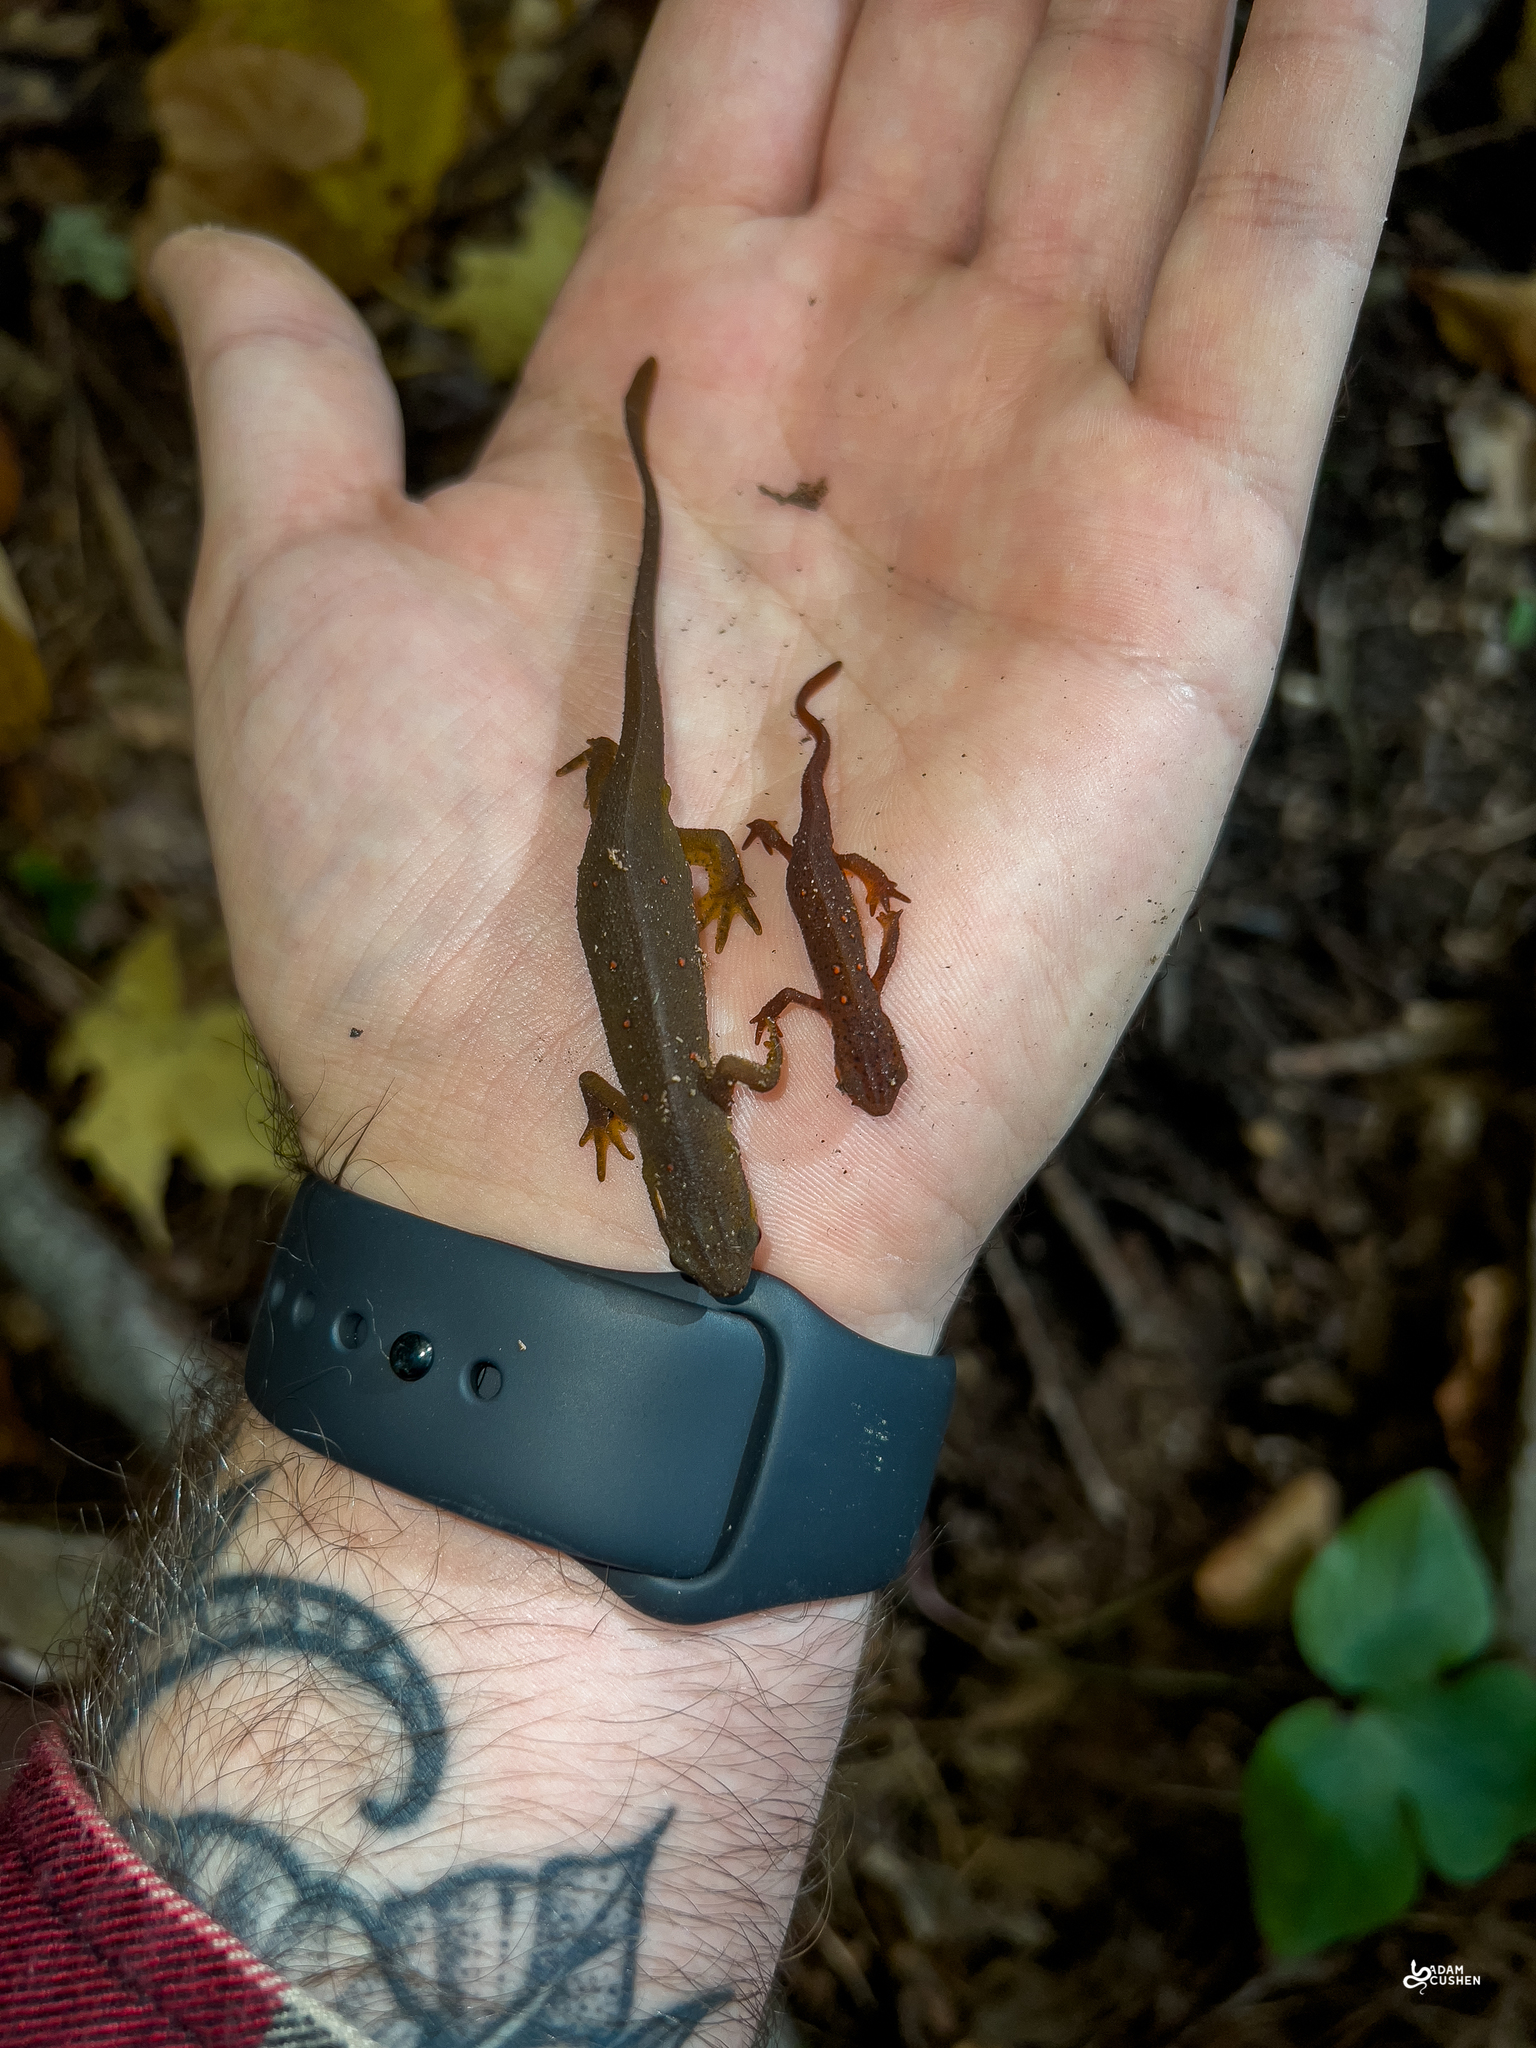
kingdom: Animalia
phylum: Chordata
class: Amphibia
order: Caudata
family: Salamandridae
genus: Notophthalmus
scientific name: Notophthalmus viridescens
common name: Eastern newt
